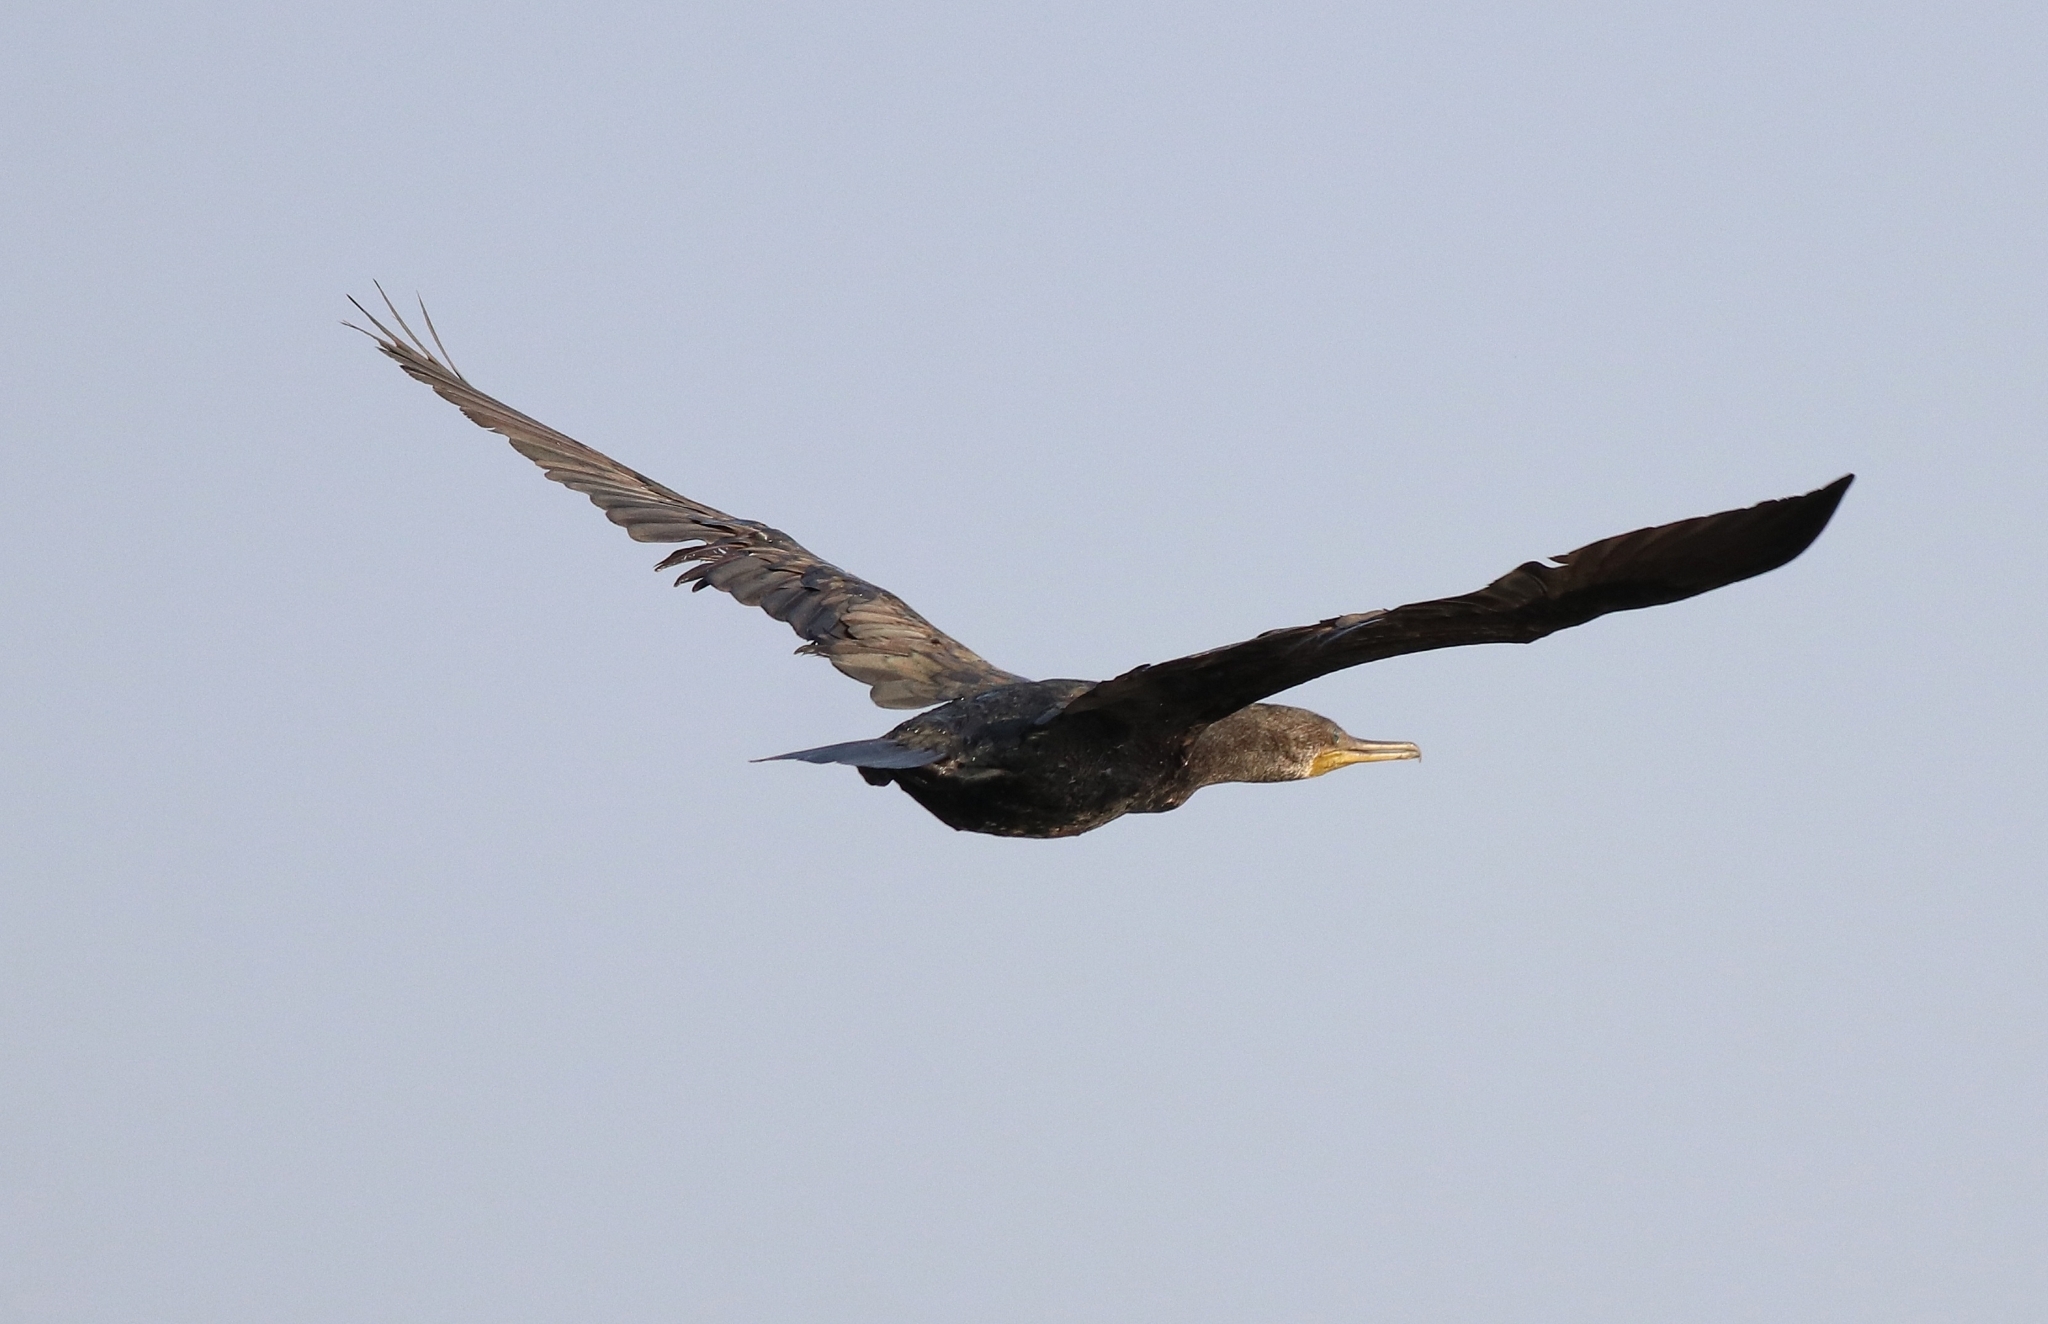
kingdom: Animalia
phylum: Chordata
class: Aves
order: Suliformes
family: Phalacrocoracidae
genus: Phalacrocorax
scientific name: Phalacrocorax fuscicollis
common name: Indian cormorant
